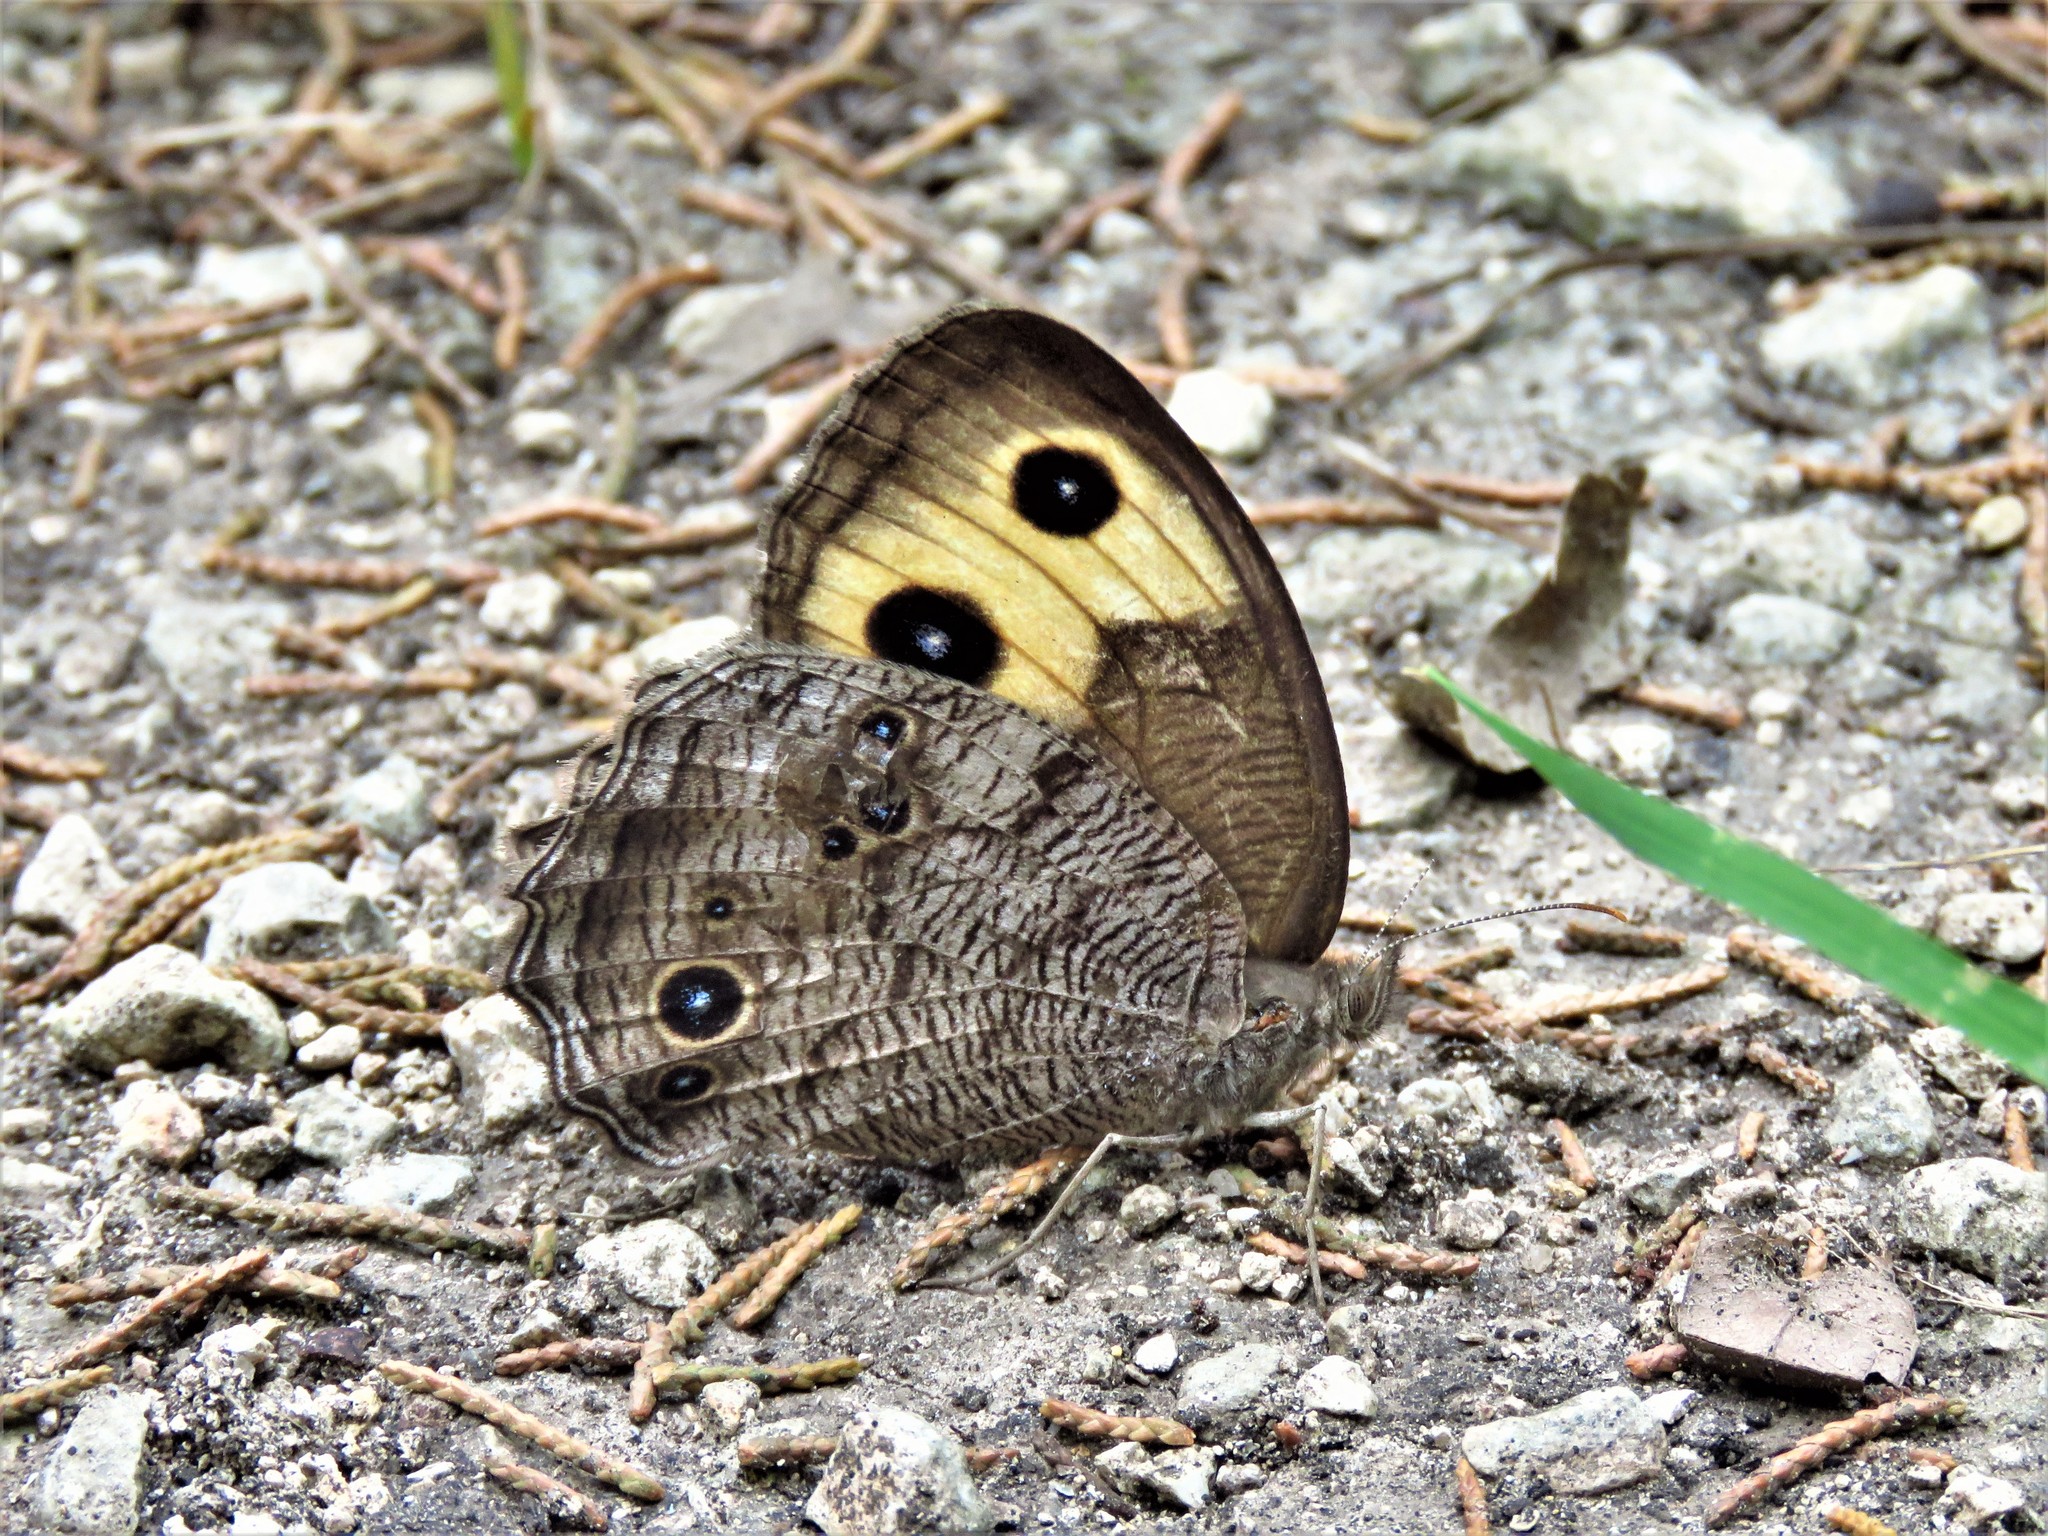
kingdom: Animalia
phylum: Arthropoda
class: Insecta
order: Lepidoptera
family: Nymphalidae
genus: Cercyonis
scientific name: Cercyonis pegala
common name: Common wood-nymph
